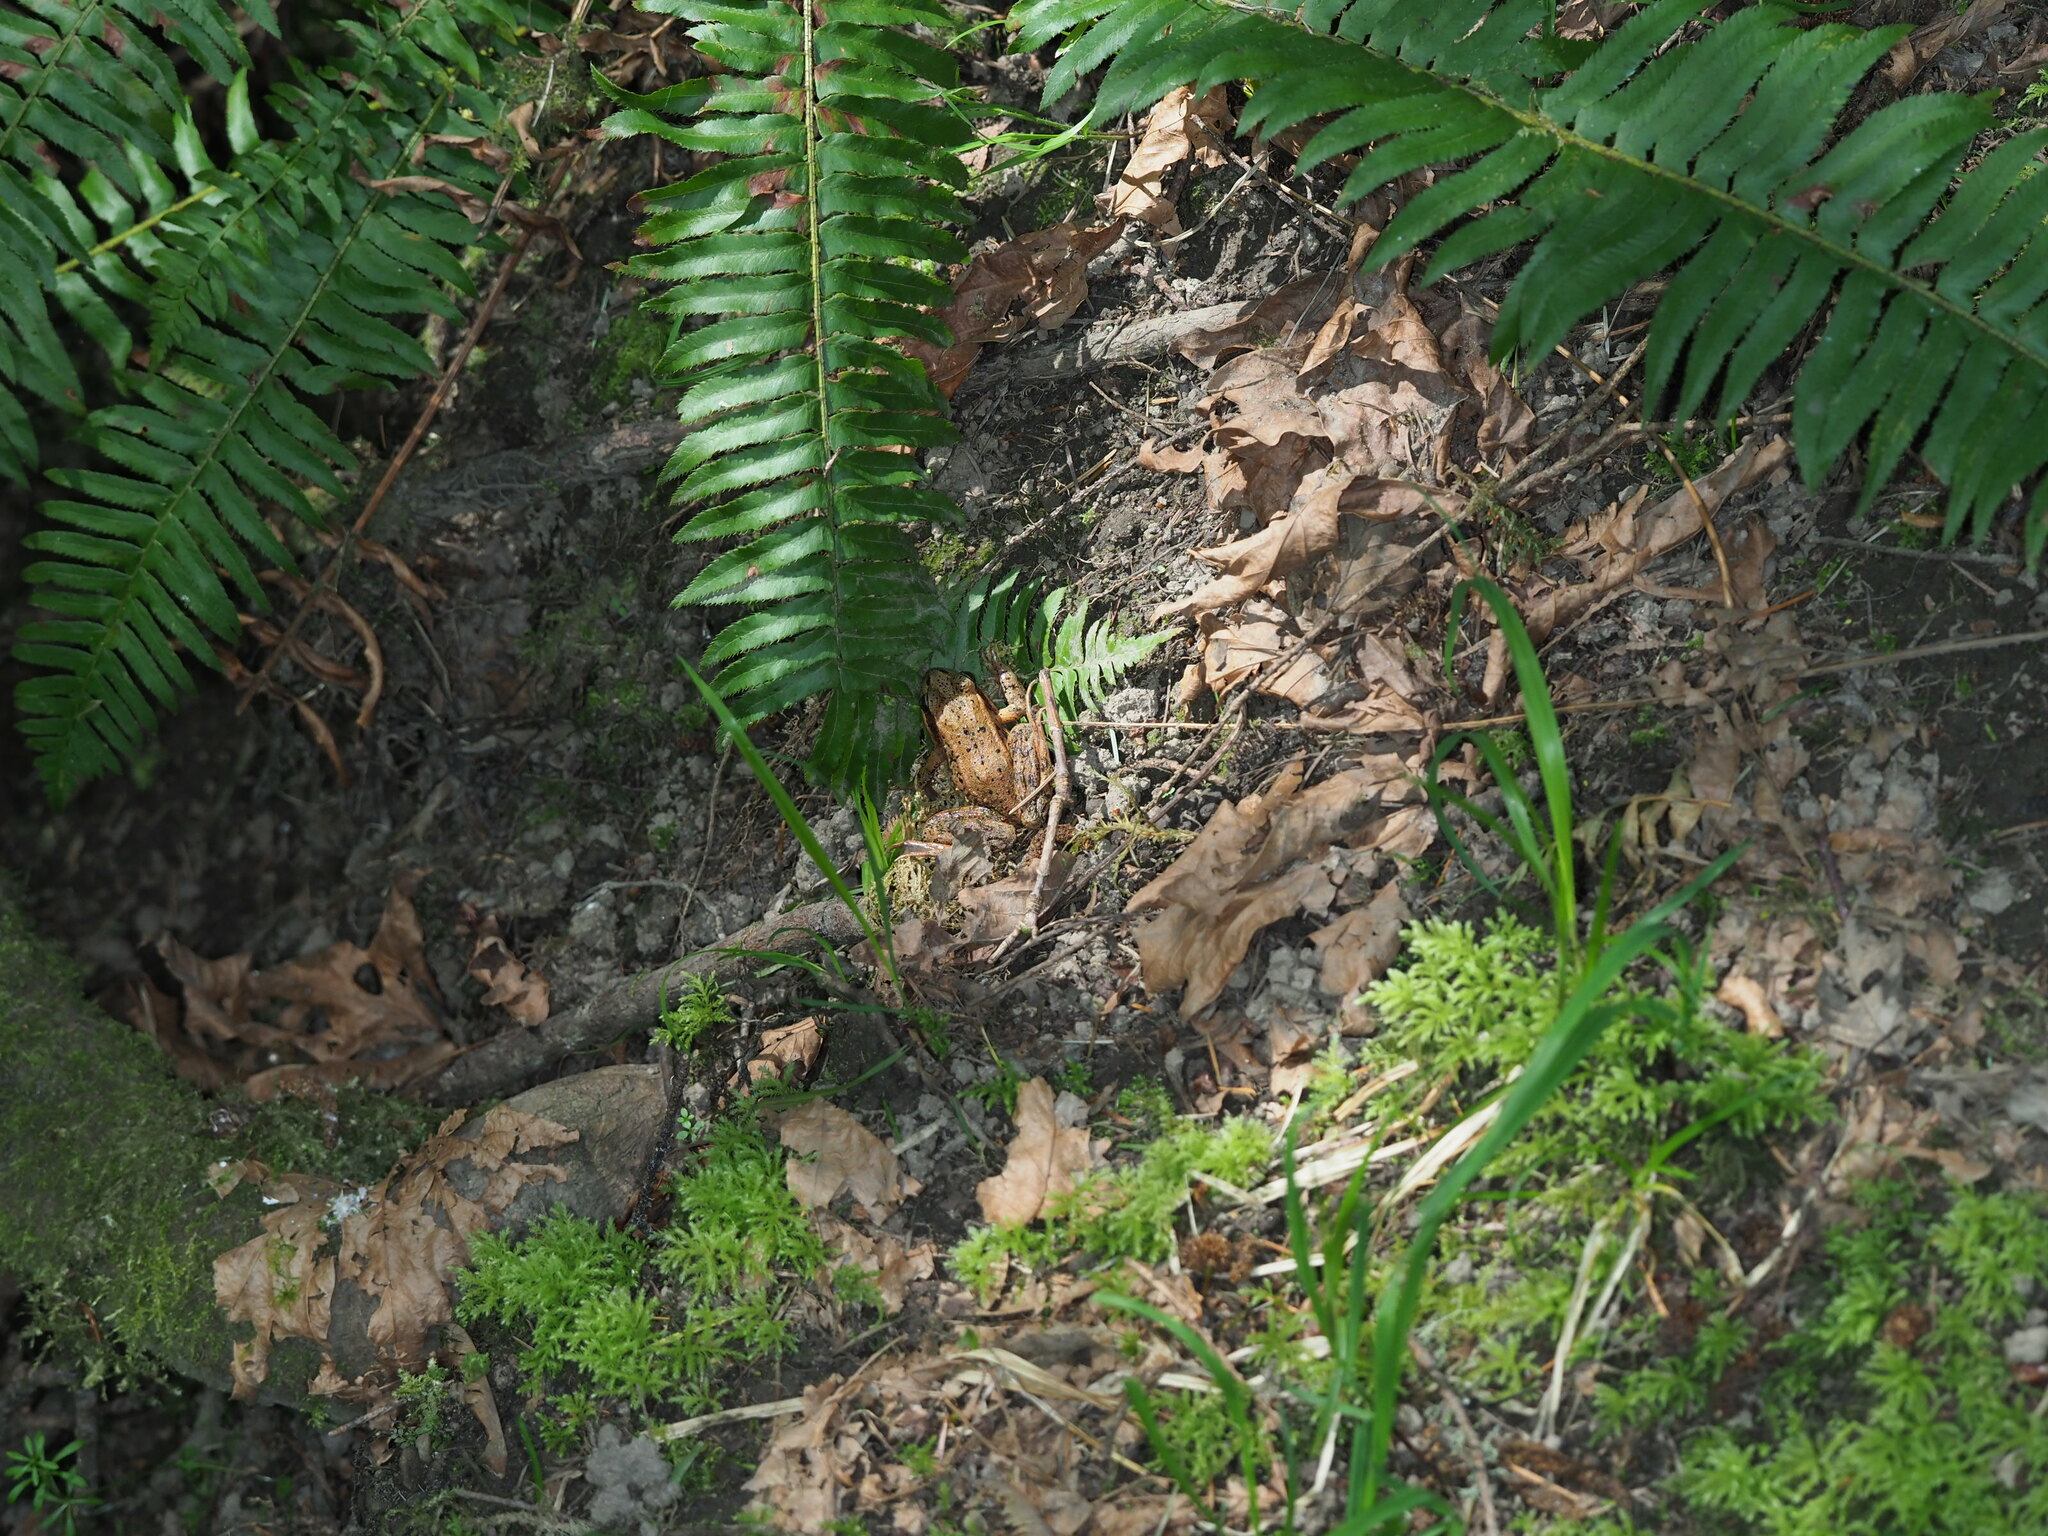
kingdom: Animalia
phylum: Chordata
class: Amphibia
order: Anura
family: Ranidae
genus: Rana
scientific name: Rana aurora
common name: Red-legged frog
